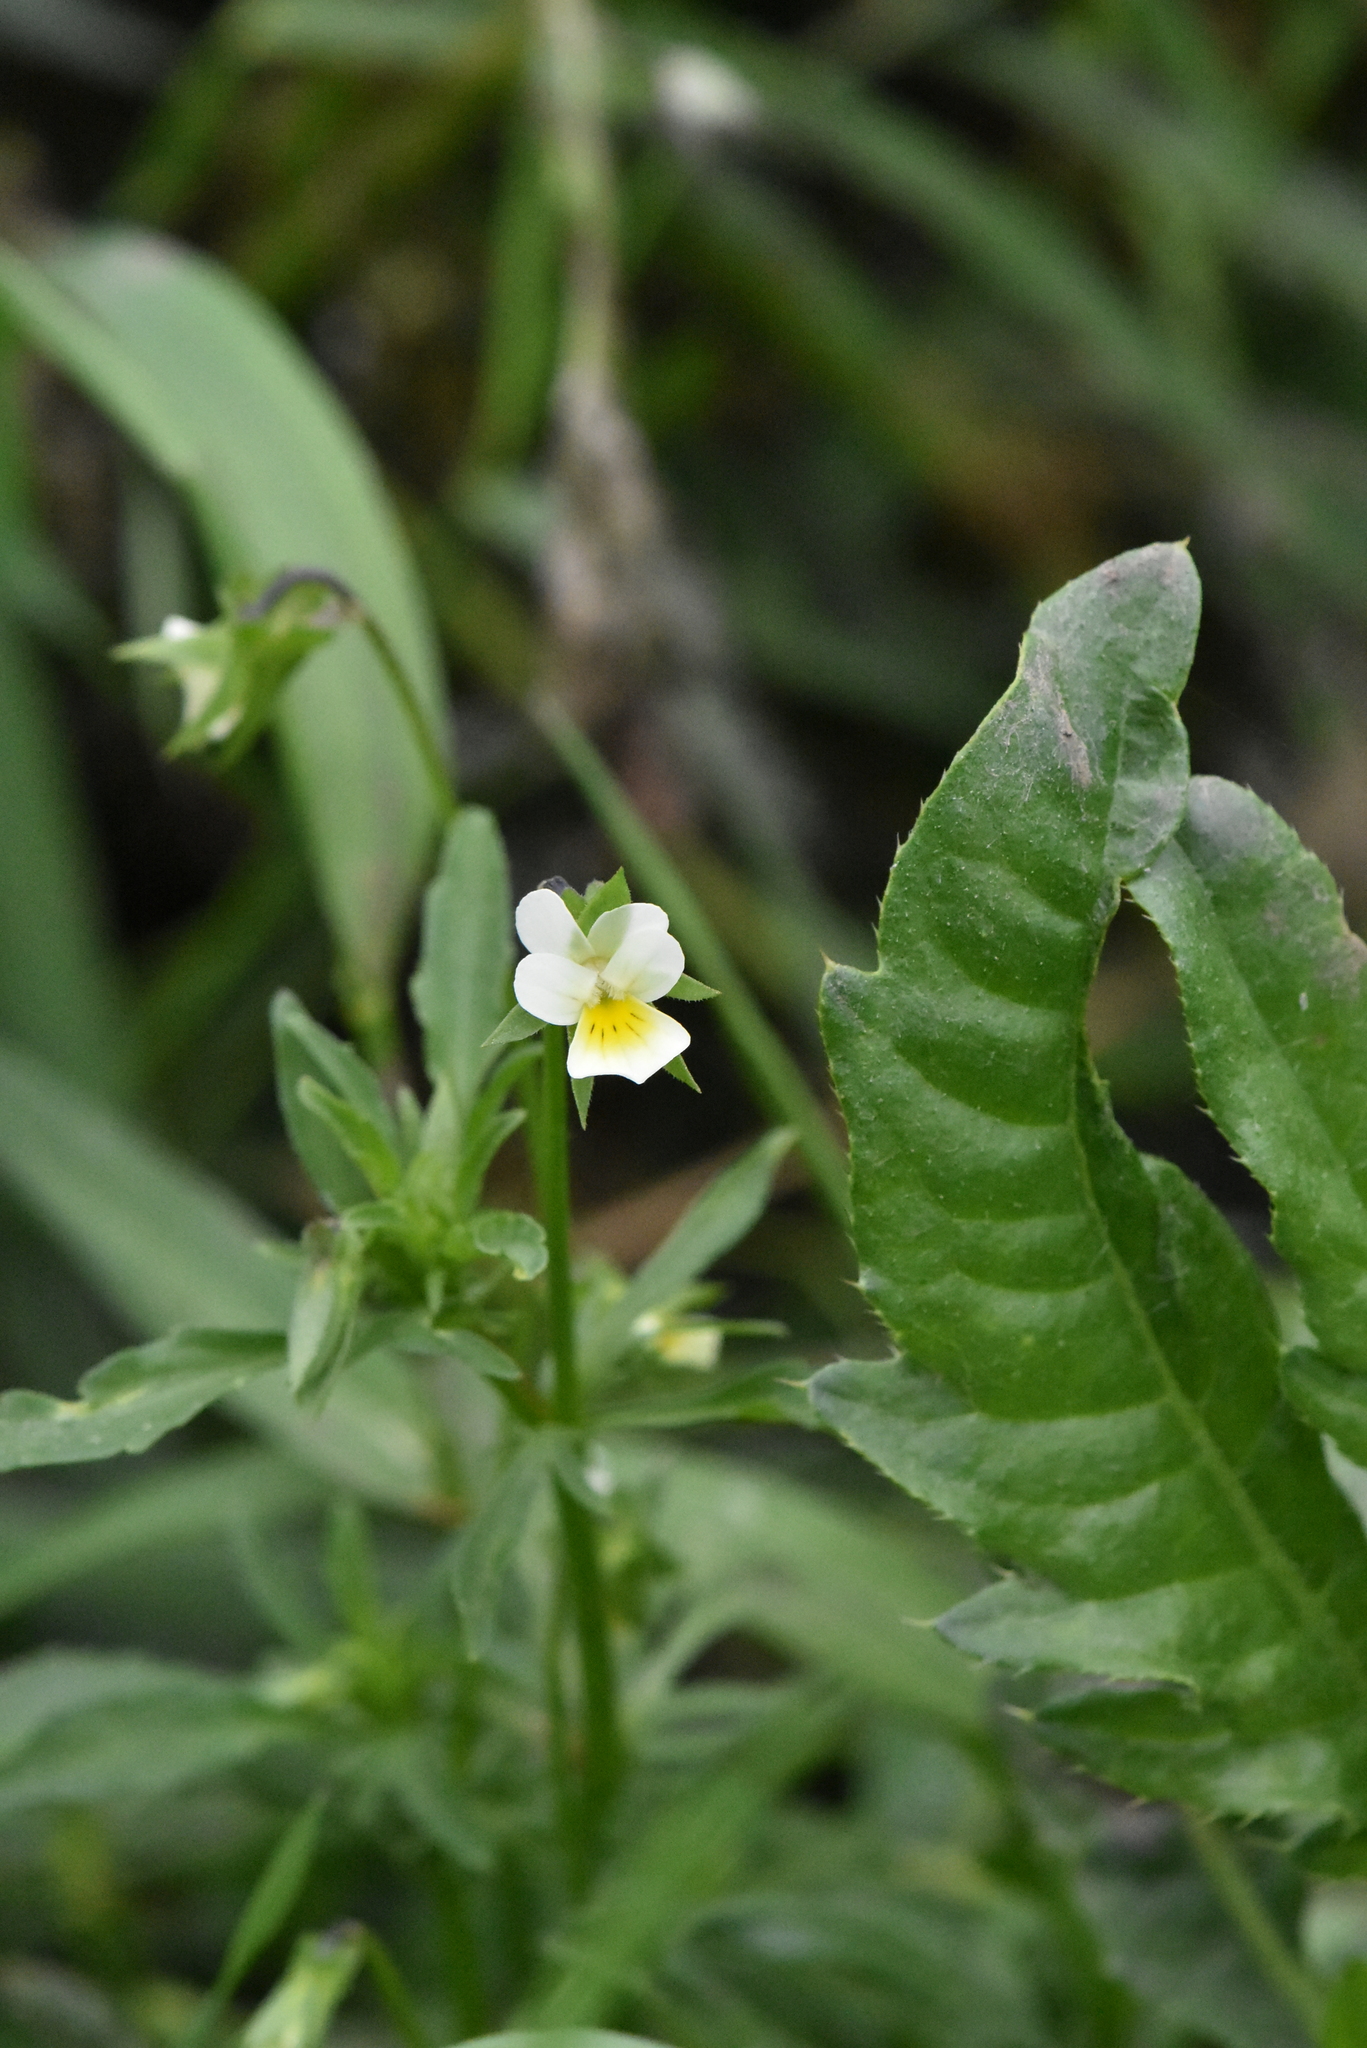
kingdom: Plantae
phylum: Tracheophyta
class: Magnoliopsida
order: Malpighiales
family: Violaceae
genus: Viola
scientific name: Viola arvensis
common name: Field pansy
